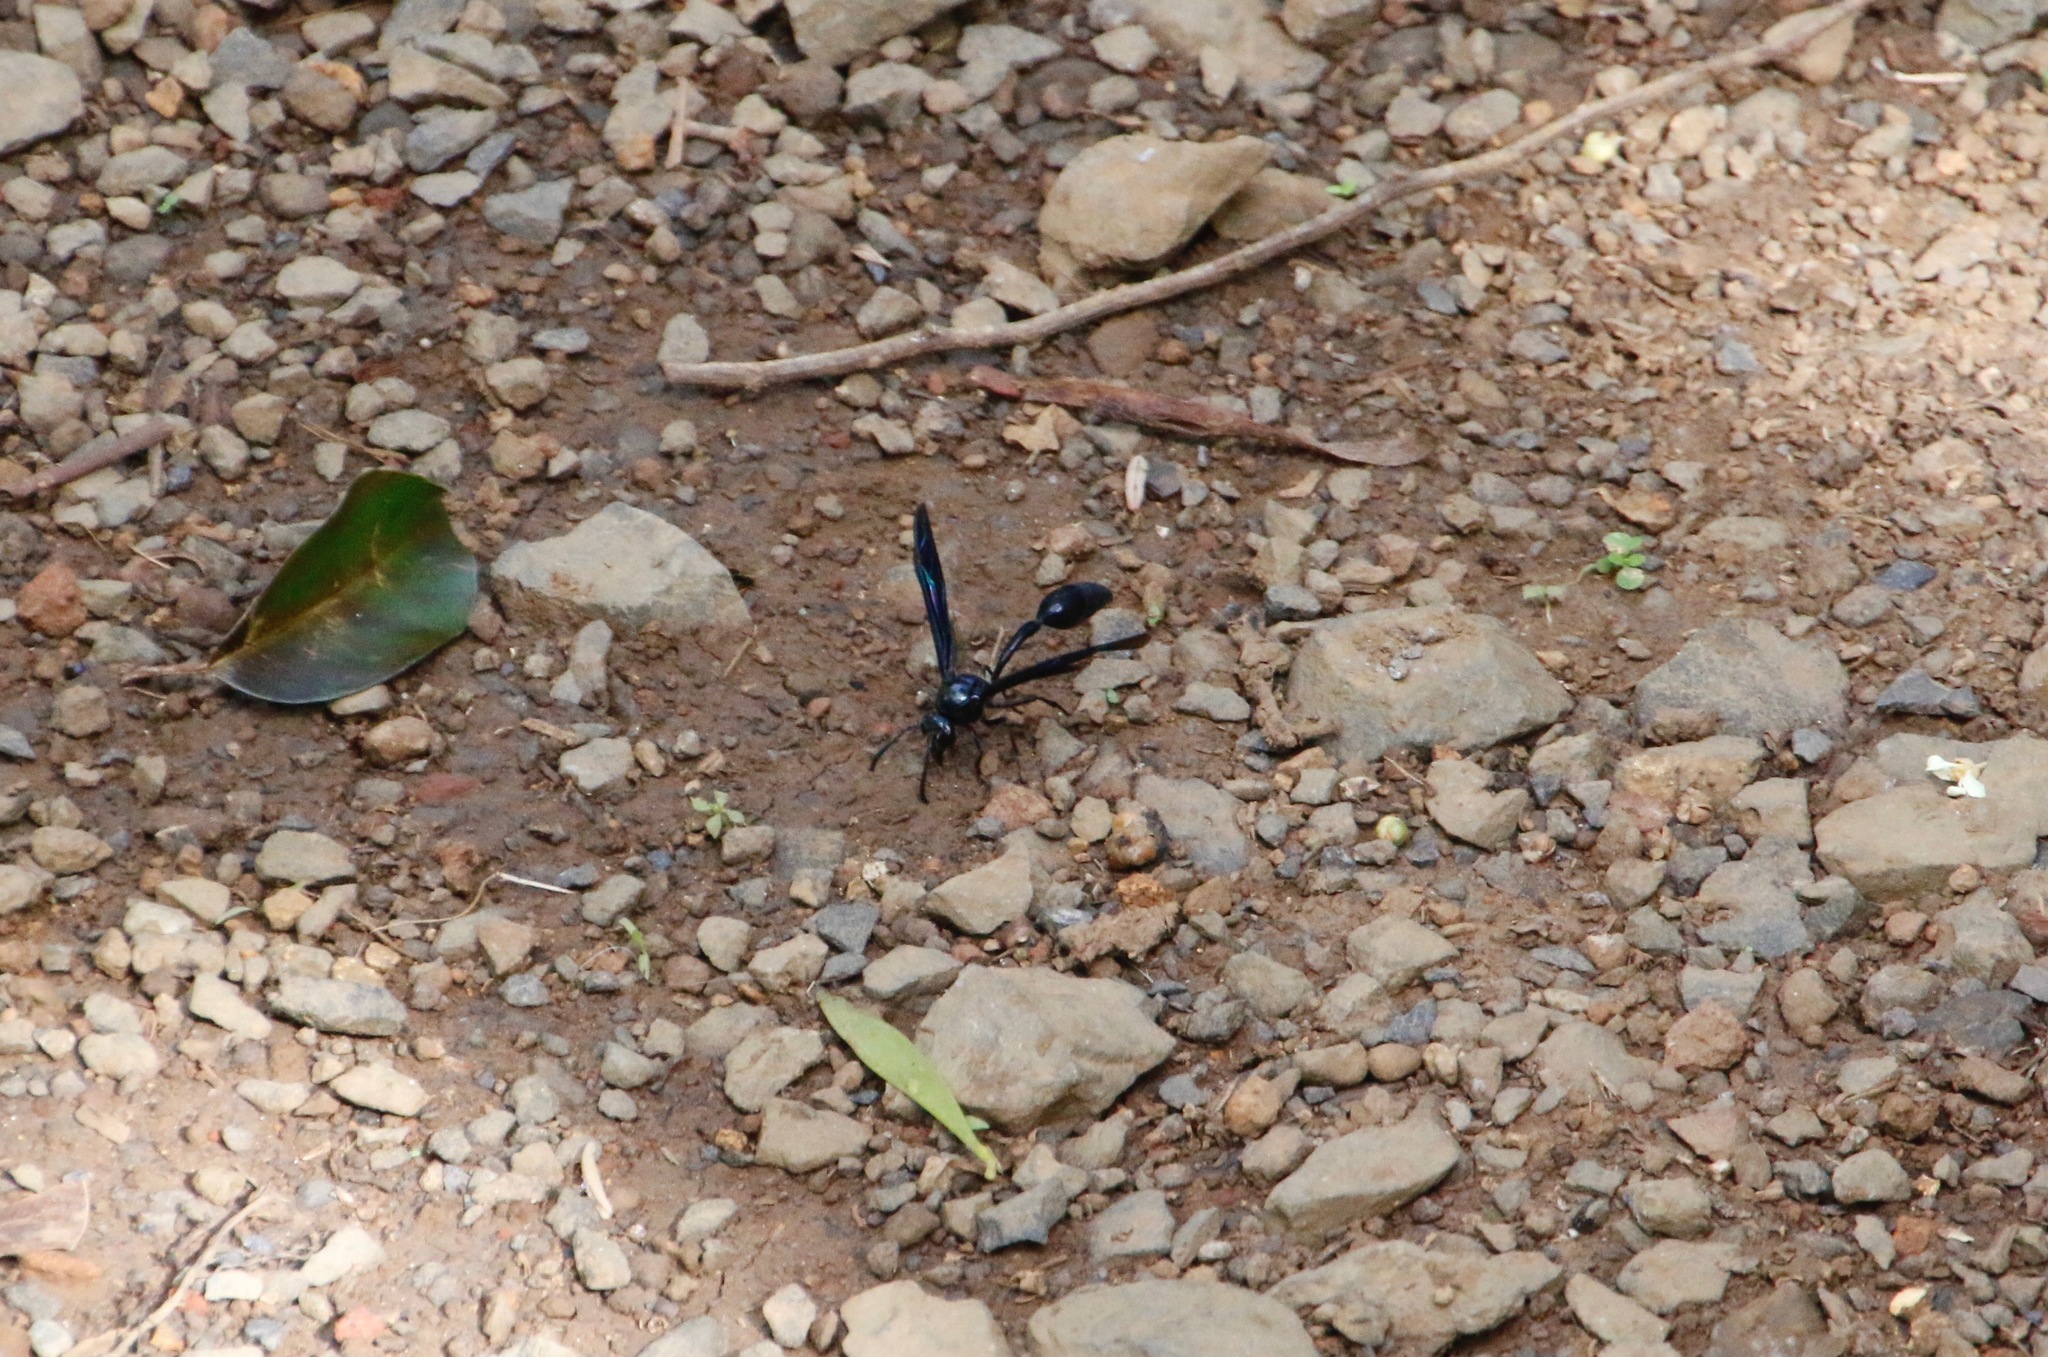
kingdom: Animalia
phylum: Arthropoda
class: Insecta
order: Hymenoptera
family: Eumenidae
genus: Phimenes
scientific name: Phimenes curvatus
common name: Black delta vespid wasp
